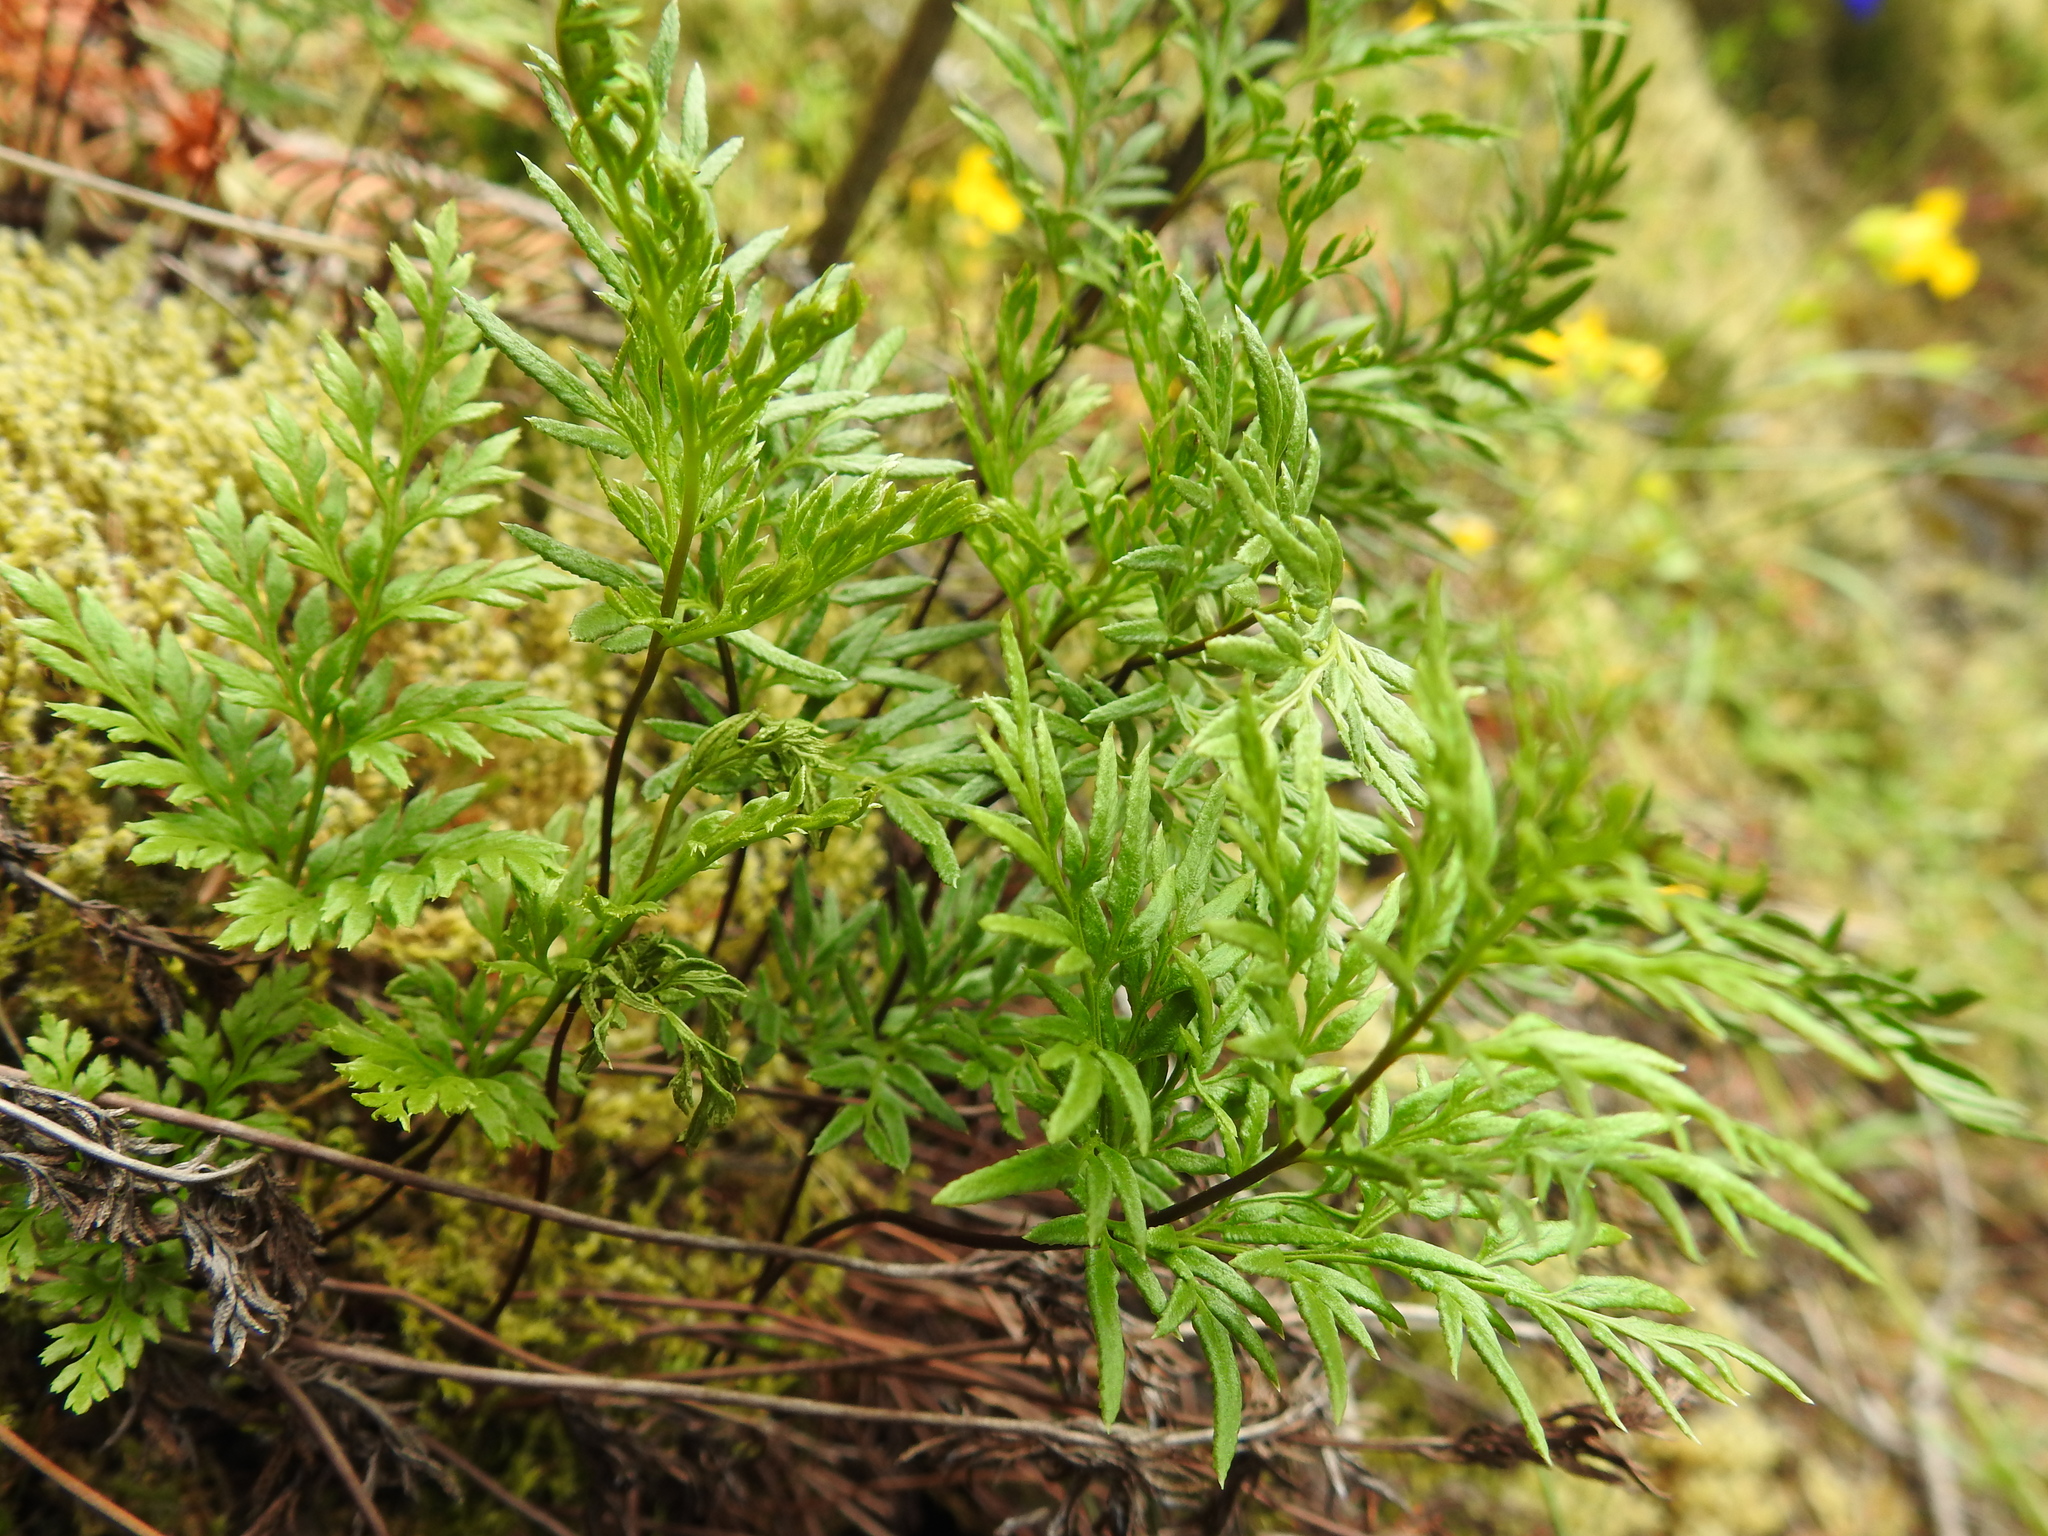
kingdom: Plantae
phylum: Tracheophyta
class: Polypodiopsida
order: Polypodiales
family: Pteridaceae
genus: Aspidotis
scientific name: Aspidotis densa
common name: Indian's dream
